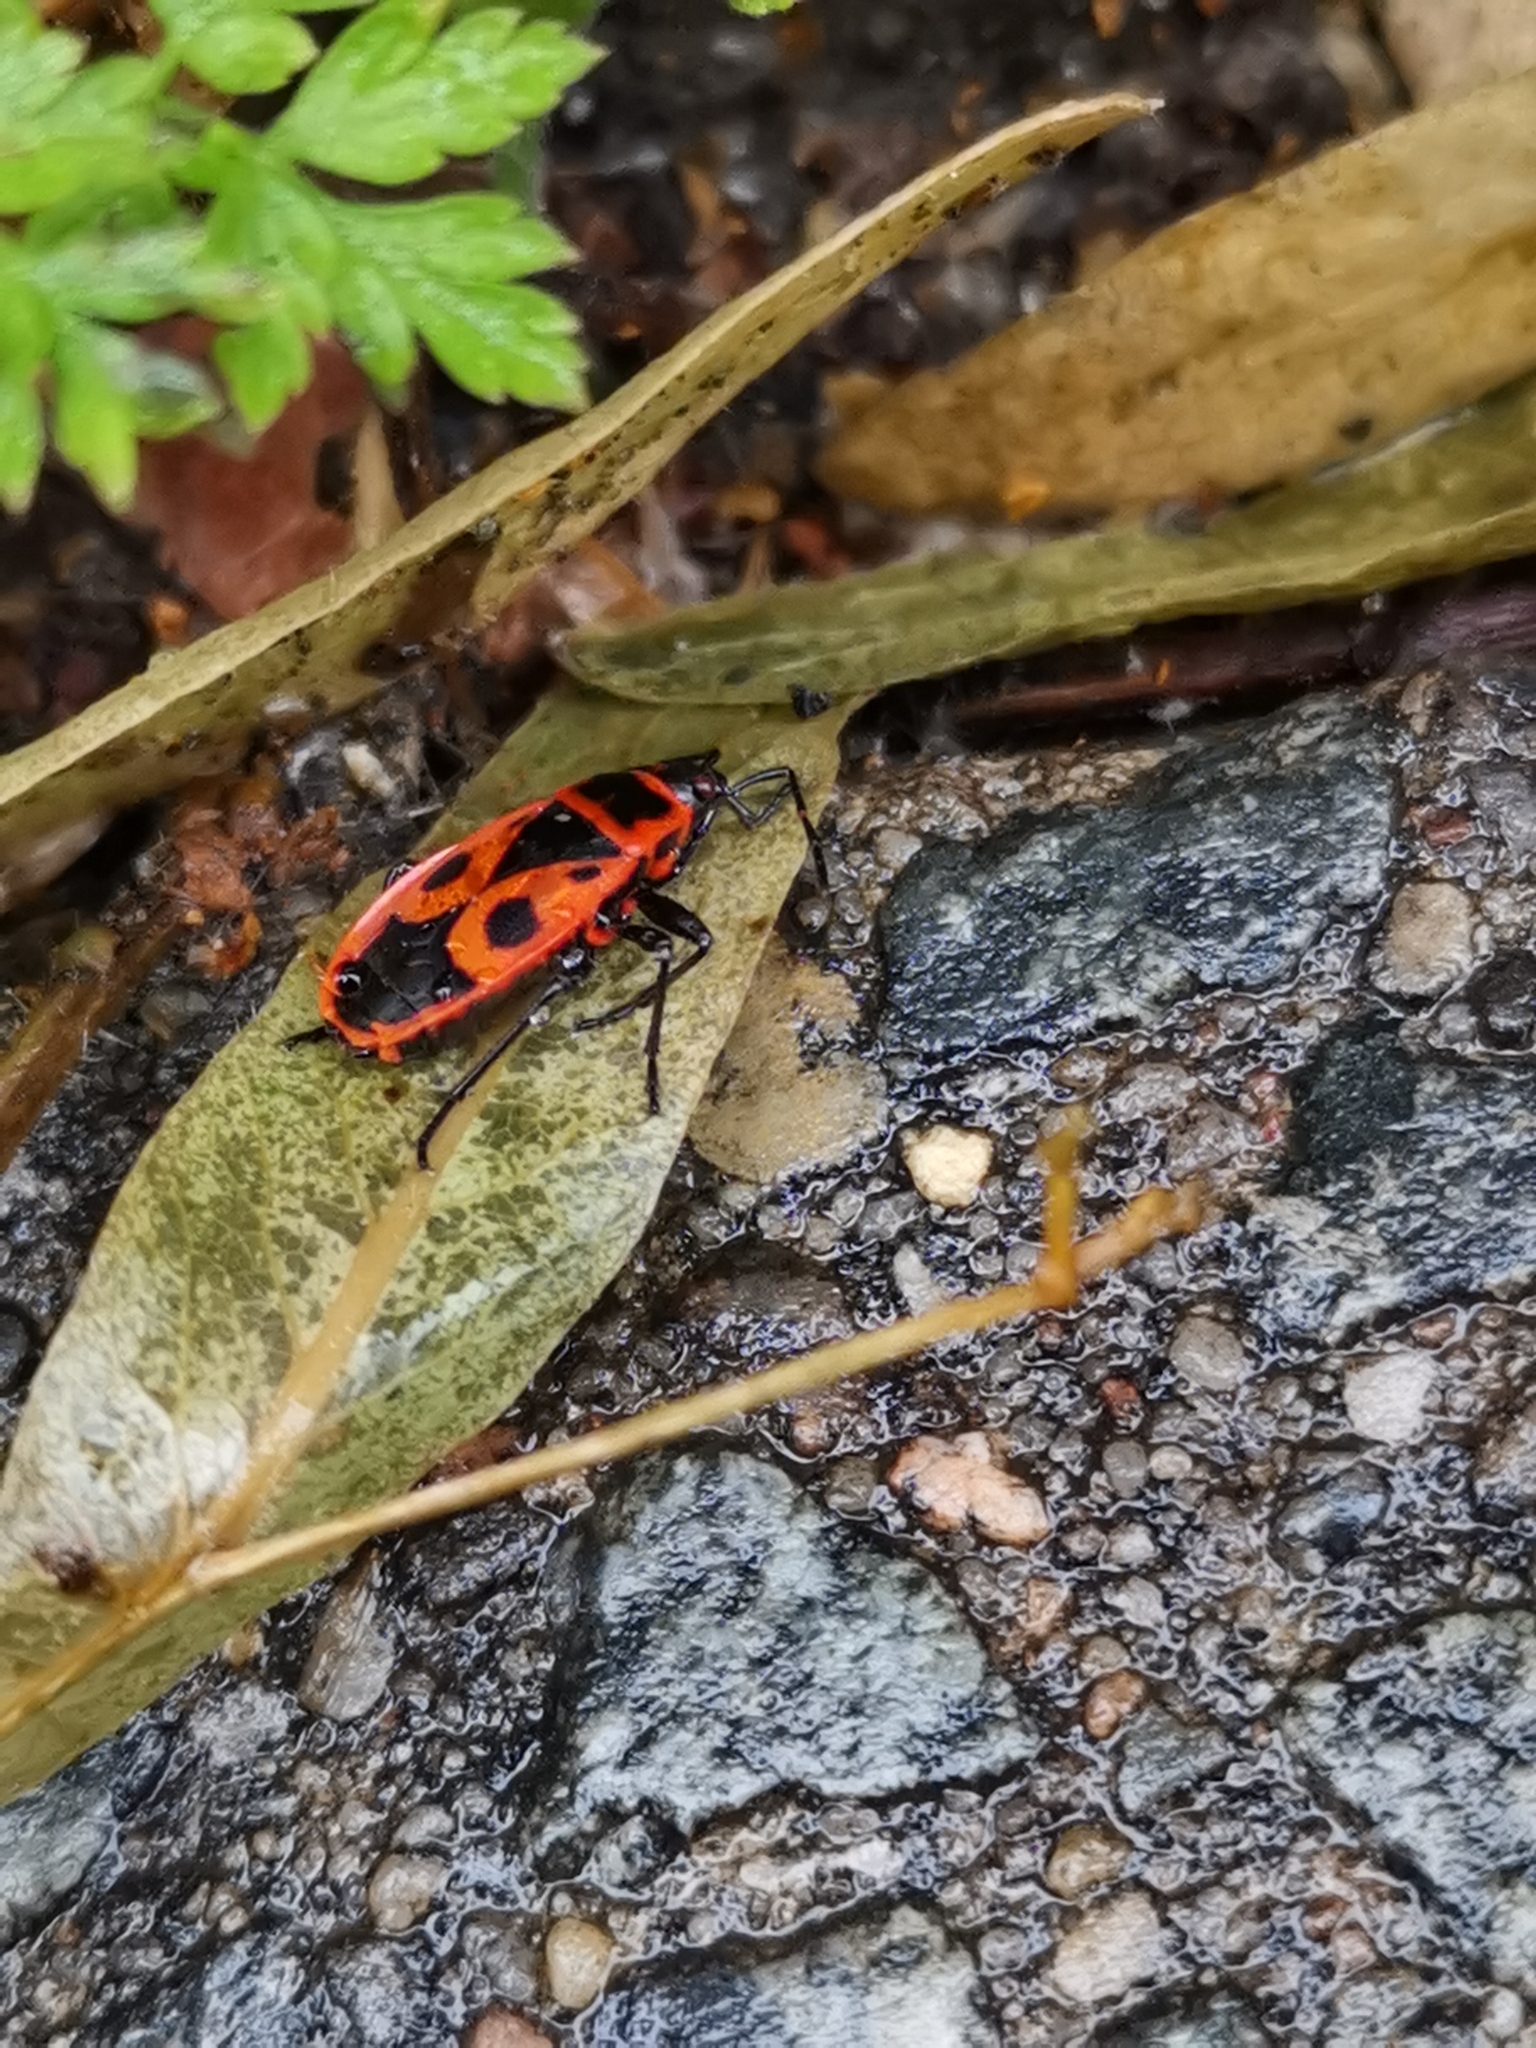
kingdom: Animalia
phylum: Arthropoda
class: Insecta
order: Hemiptera
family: Pyrrhocoridae
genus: Pyrrhocoris
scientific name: Pyrrhocoris apterus
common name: Firebug
